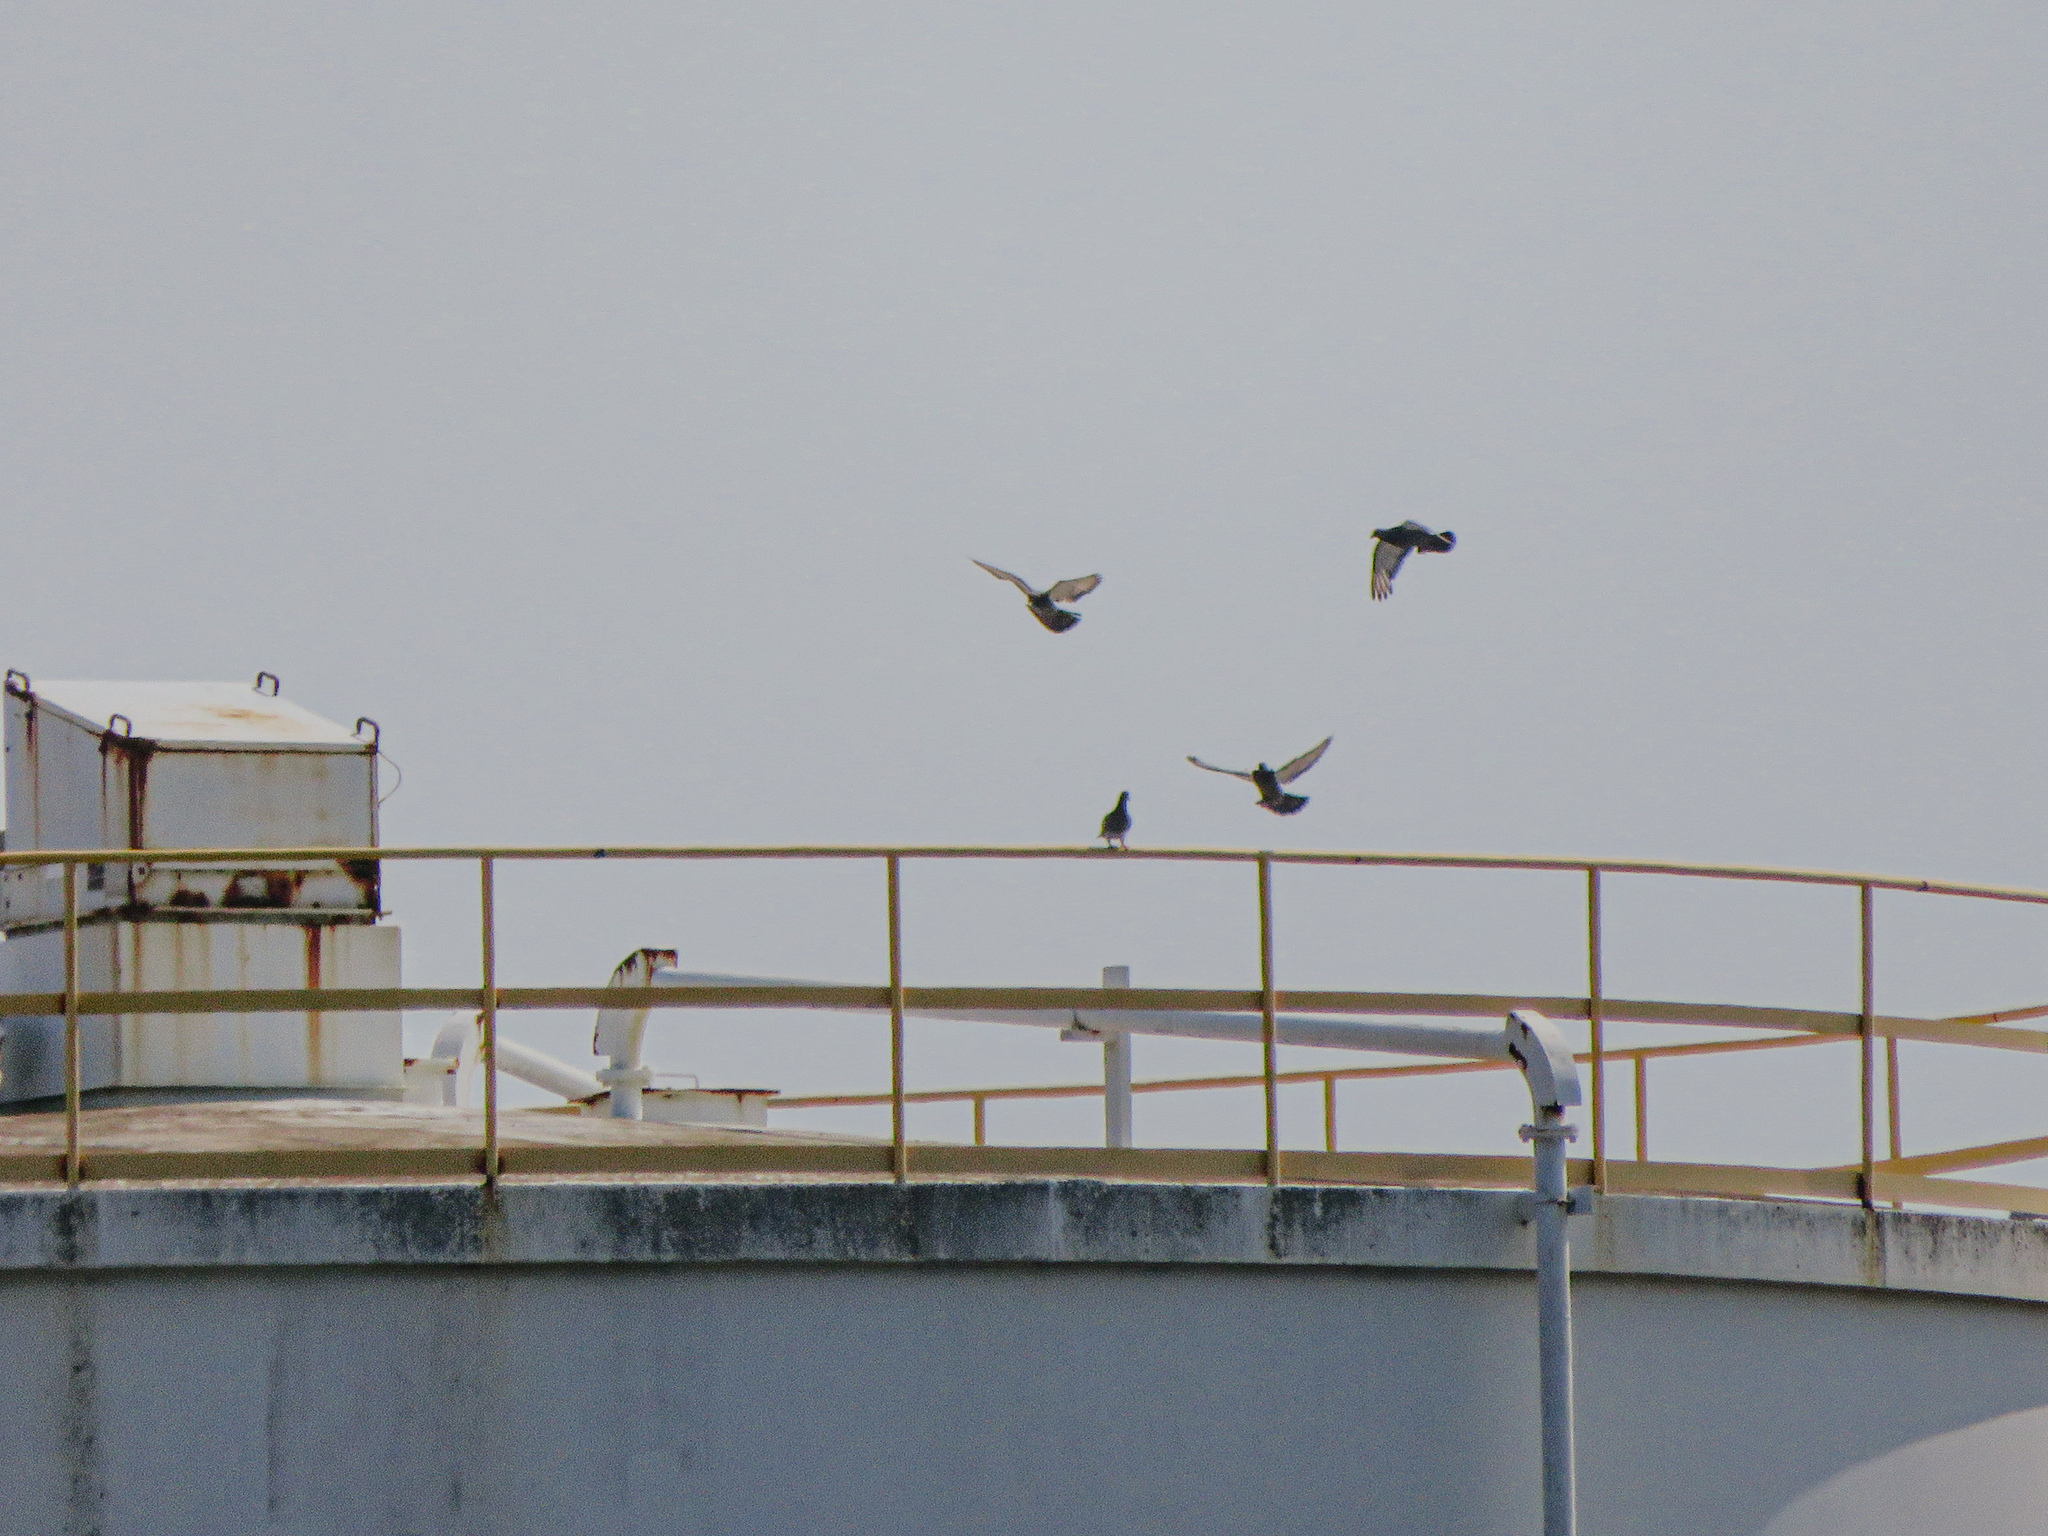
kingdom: Animalia
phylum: Chordata
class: Aves
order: Columbiformes
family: Columbidae
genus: Columba
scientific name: Columba livia
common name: Rock pigeon
